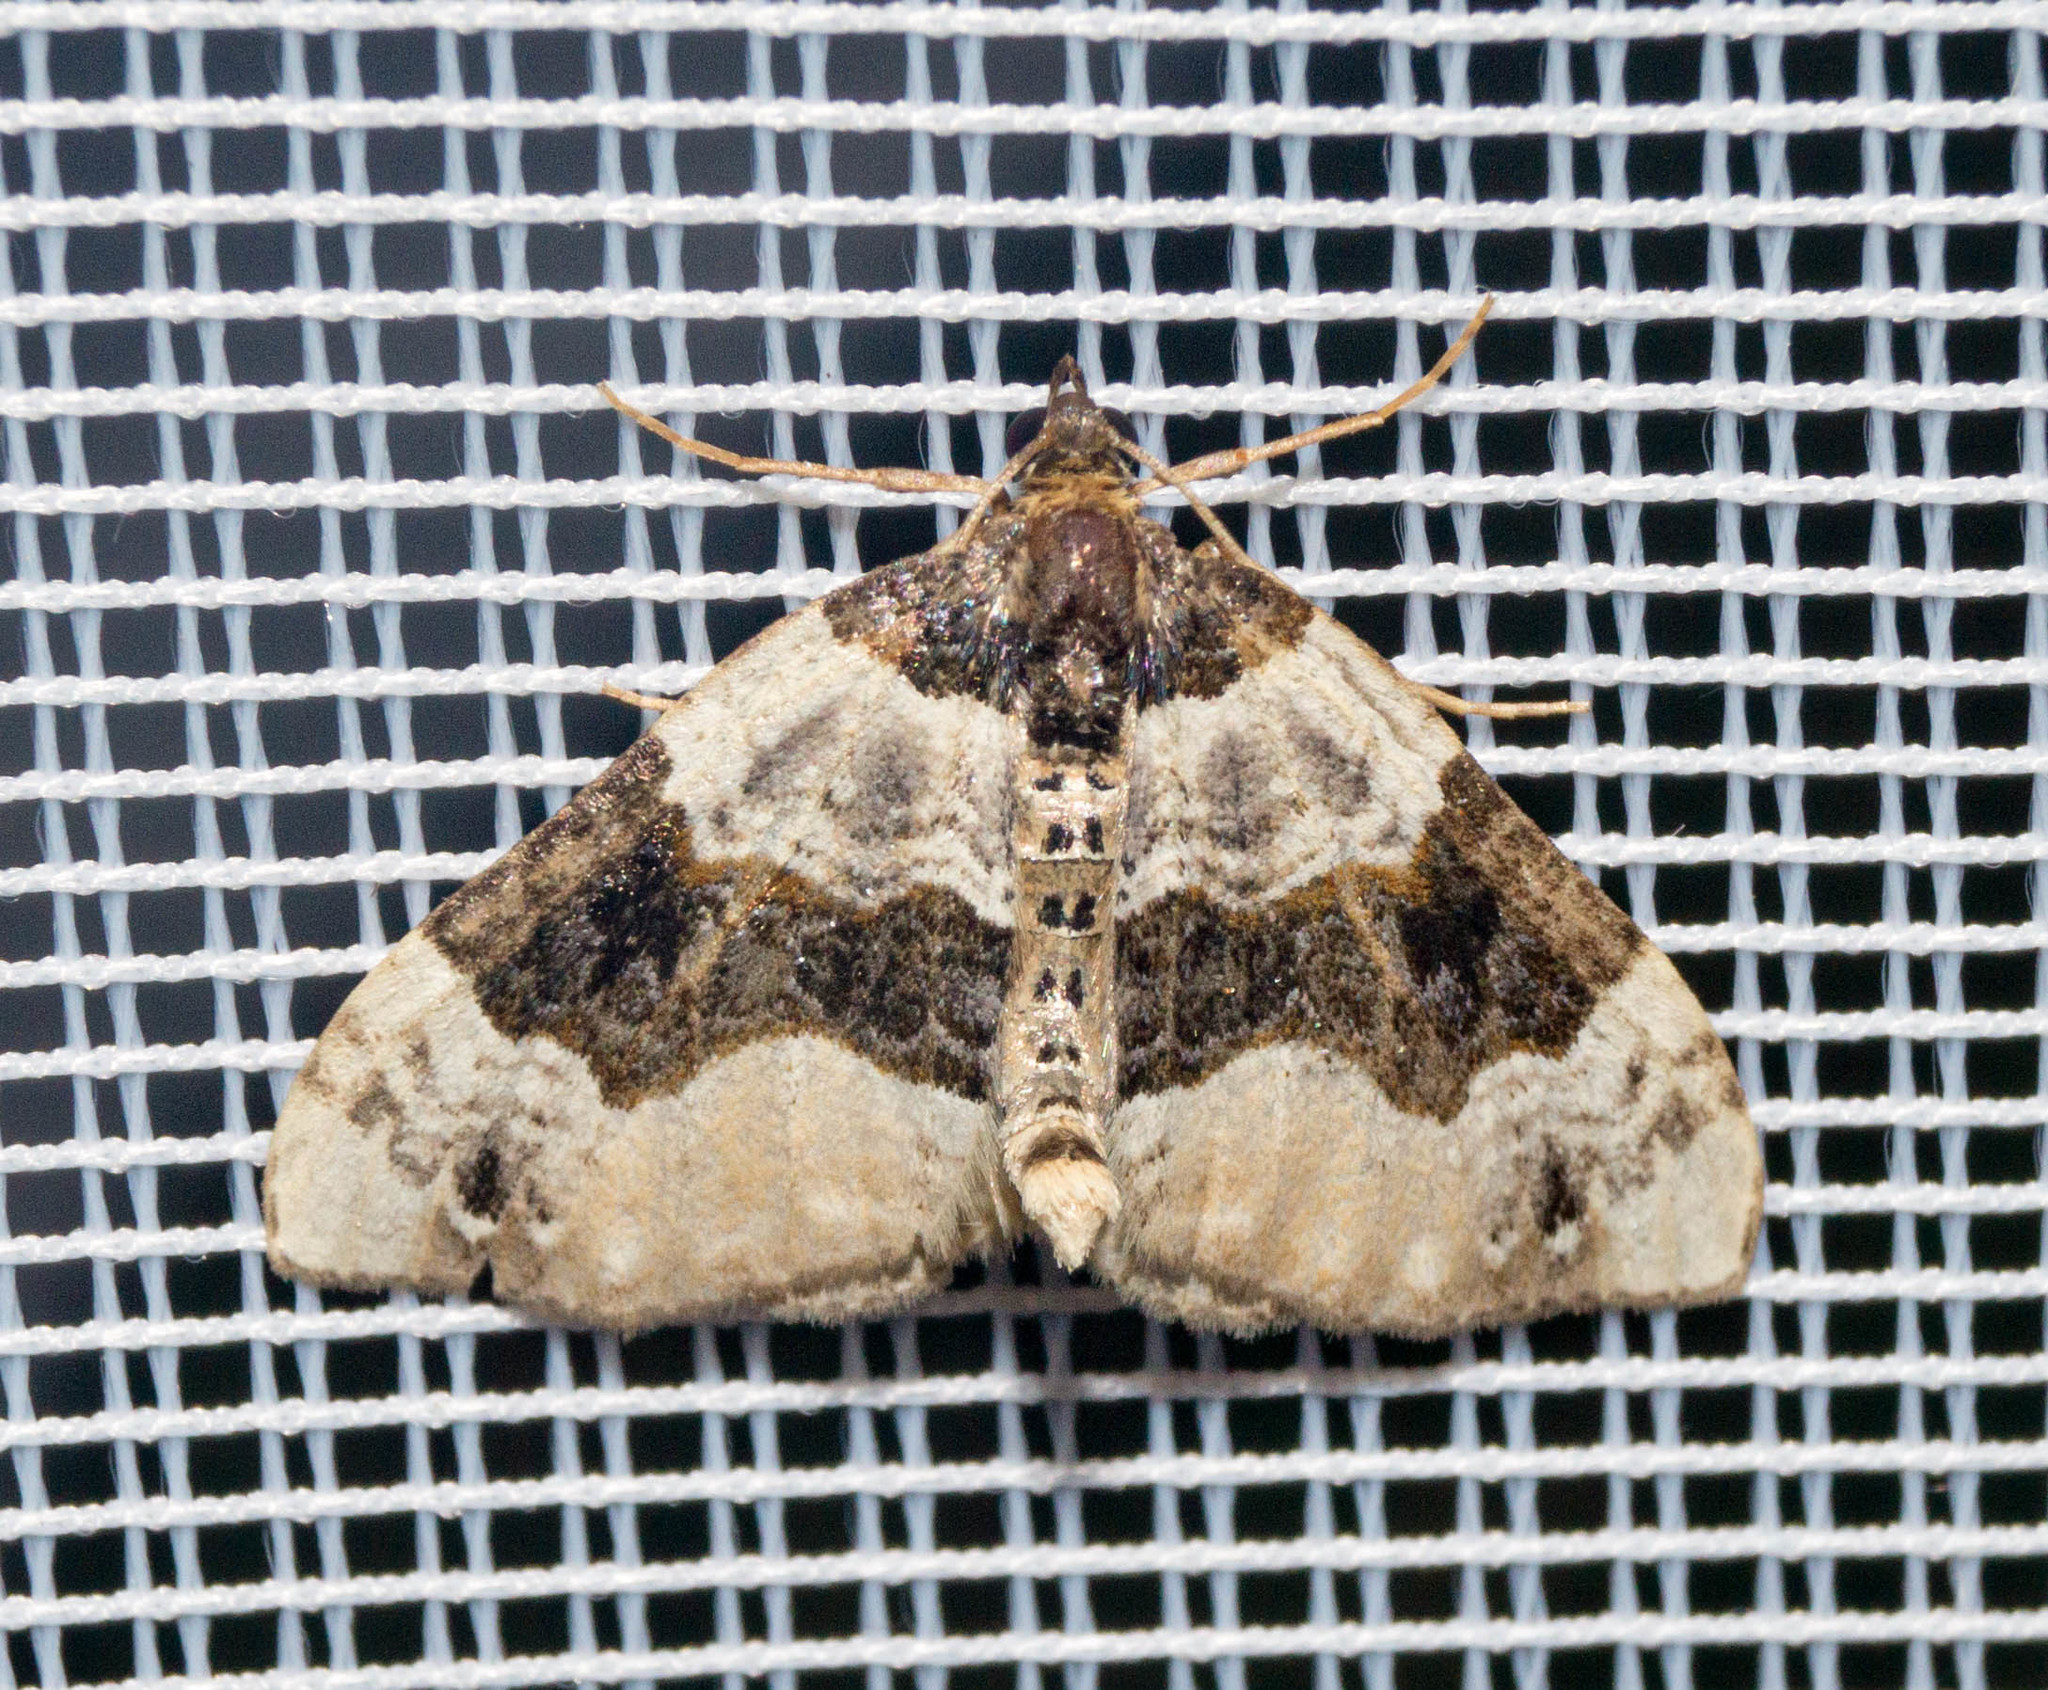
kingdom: Animalia
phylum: Arthropoda
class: Insecta
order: Lepidoptera
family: Geometridae
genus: Cosmorhoe
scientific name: Cosmorhoe ocellata
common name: Purple bar
